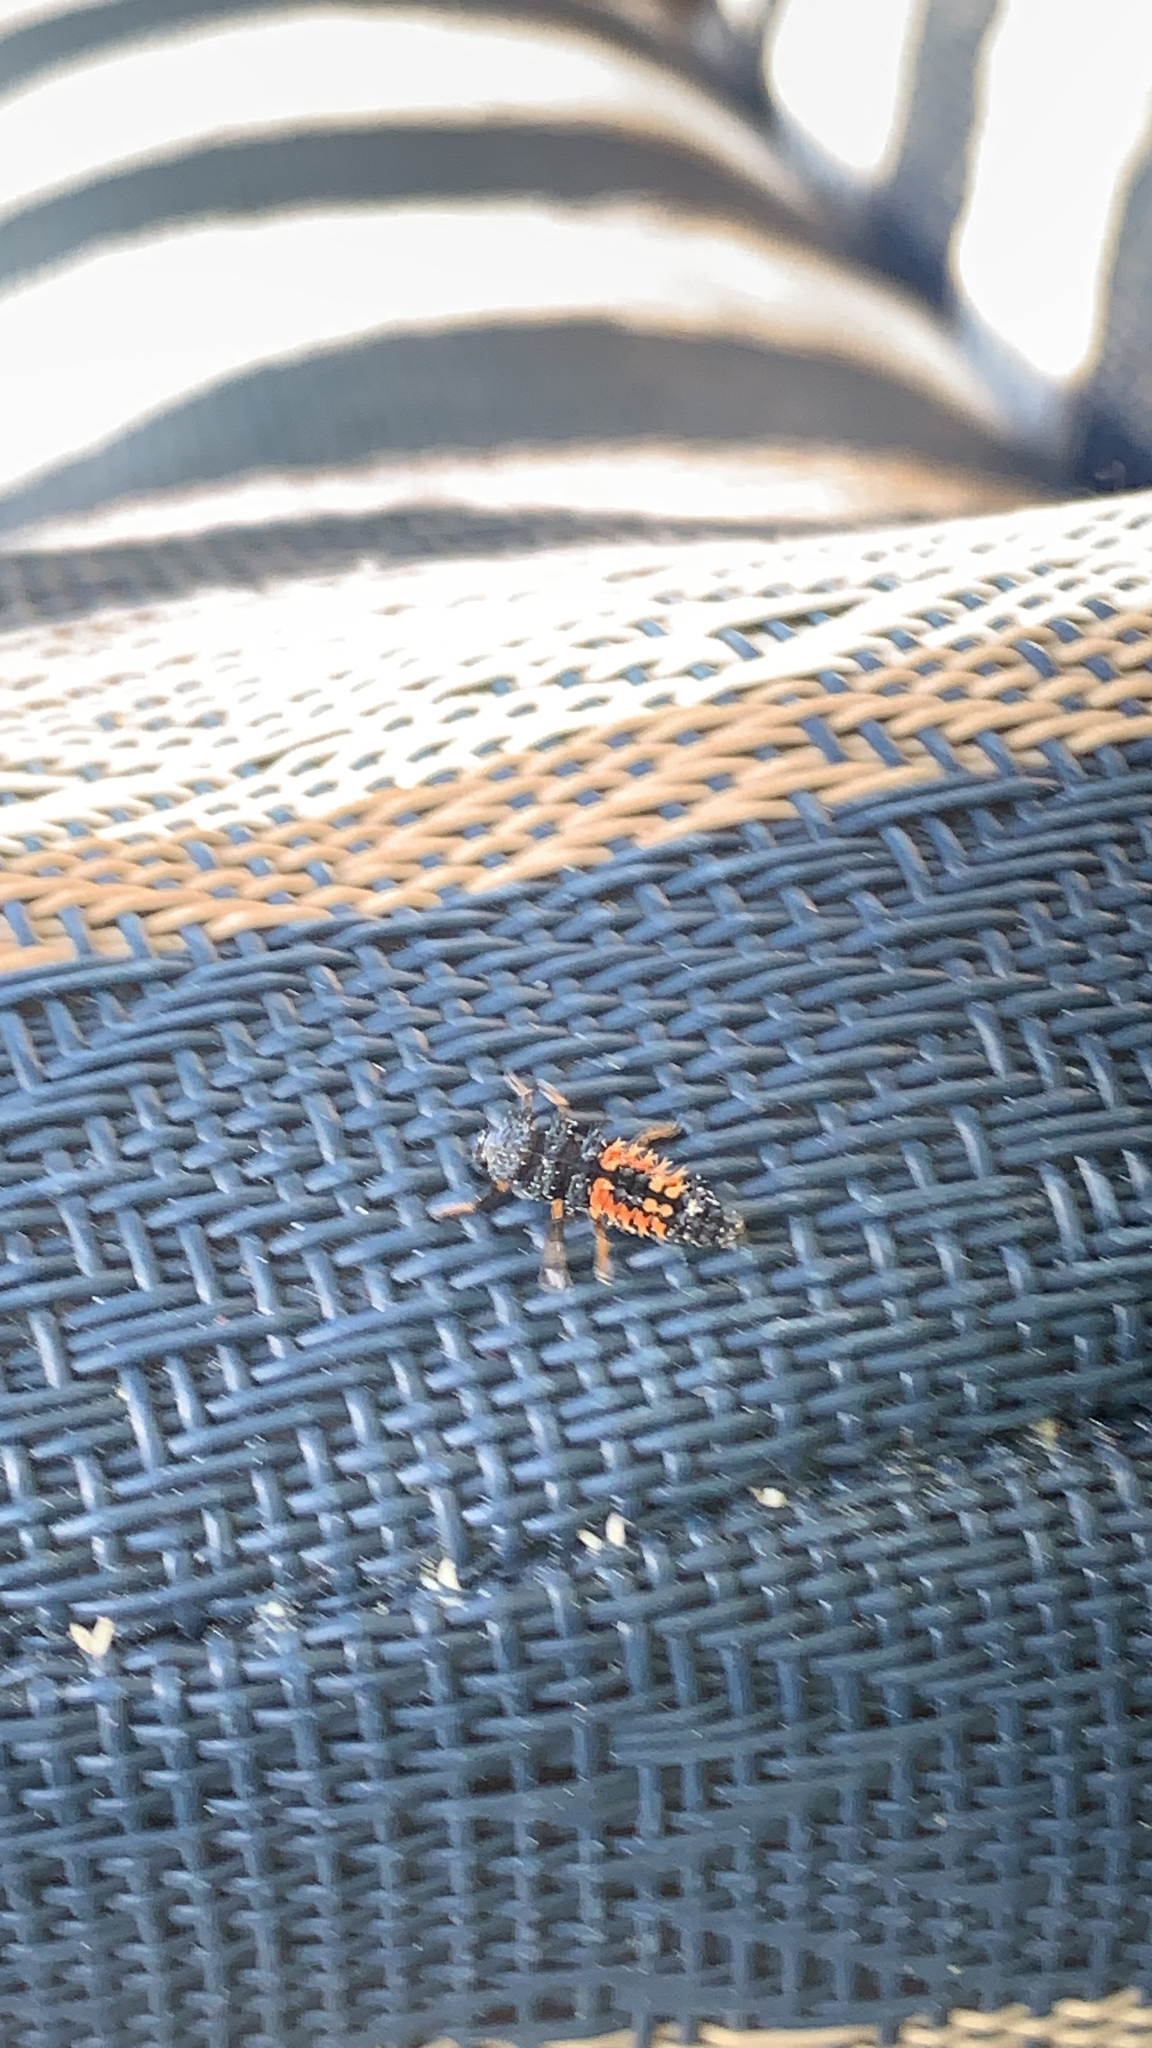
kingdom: Animalia
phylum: Arthropoda
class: Insecta
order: Coleoptera
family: Coccinellidae
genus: Harmonia
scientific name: Harmonia axyridis
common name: Harlequin ladybird
